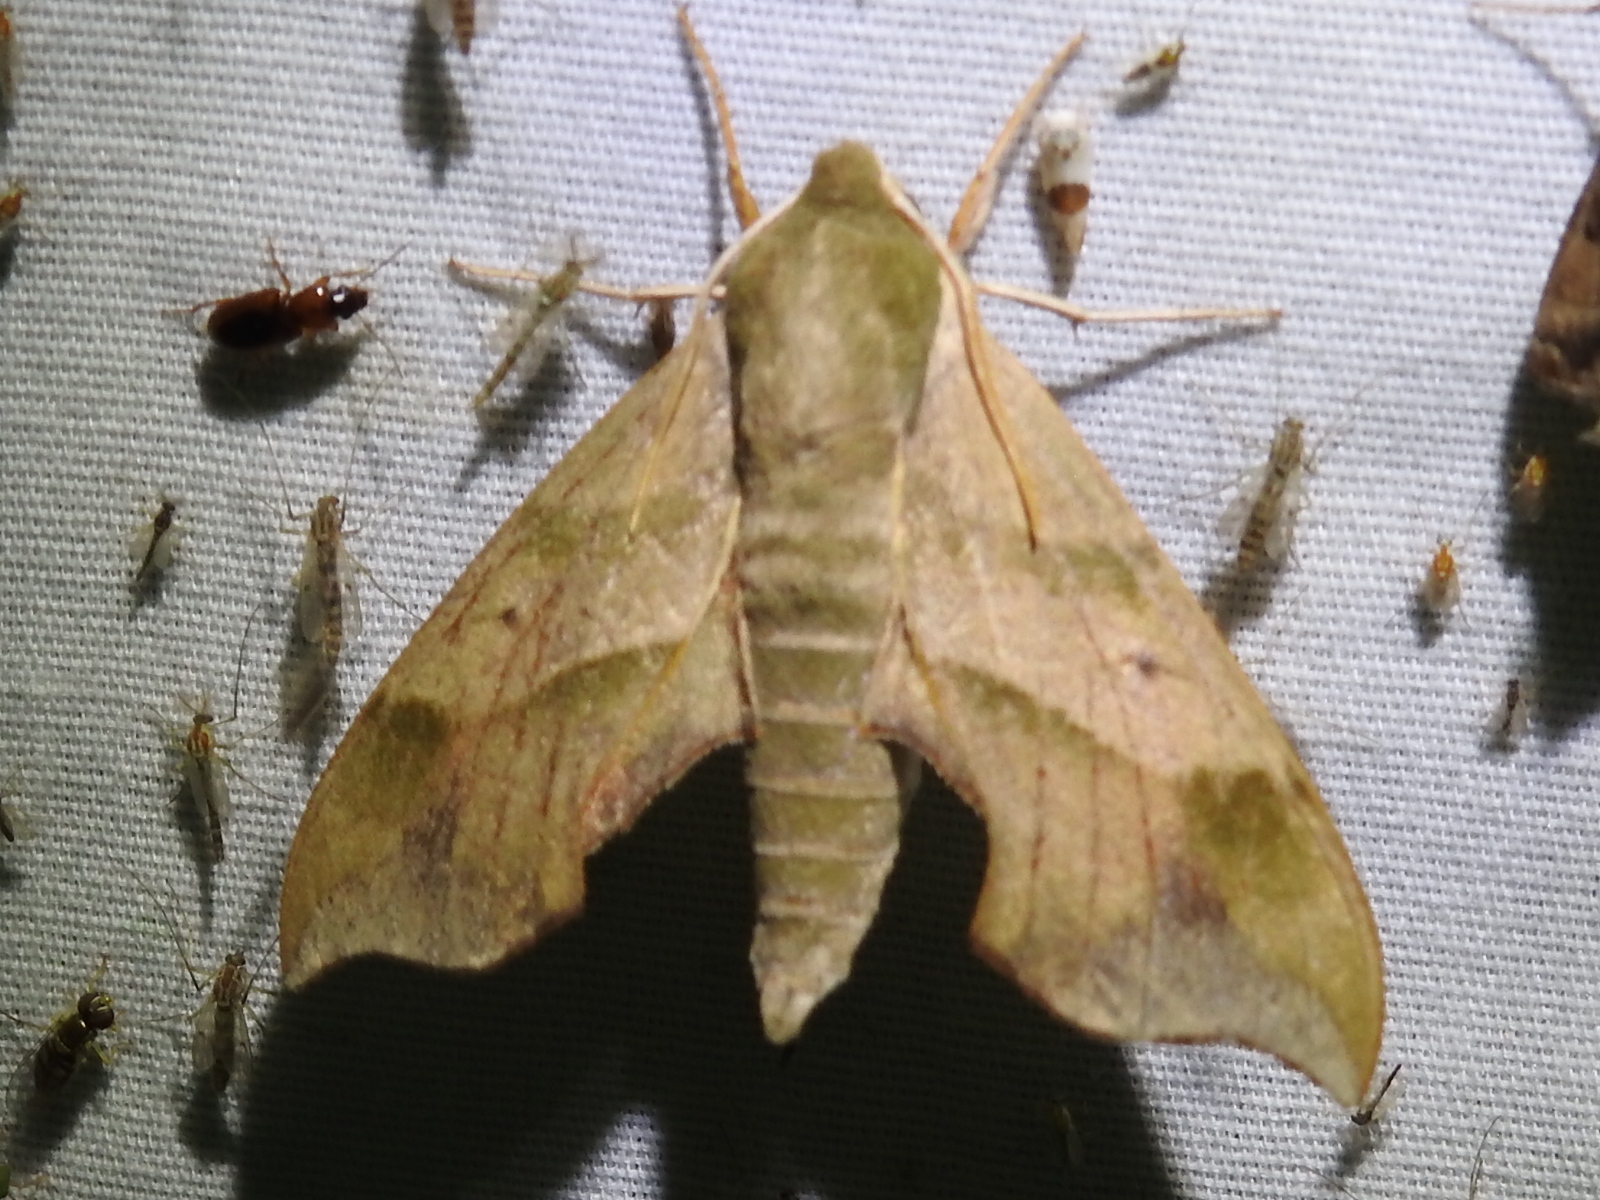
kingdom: Animalia
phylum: Arthropoda
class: Insecta
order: Lepidoptera
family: Sphingidae
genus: Darapsa
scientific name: Darapsa myron
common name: Hog sphinx
